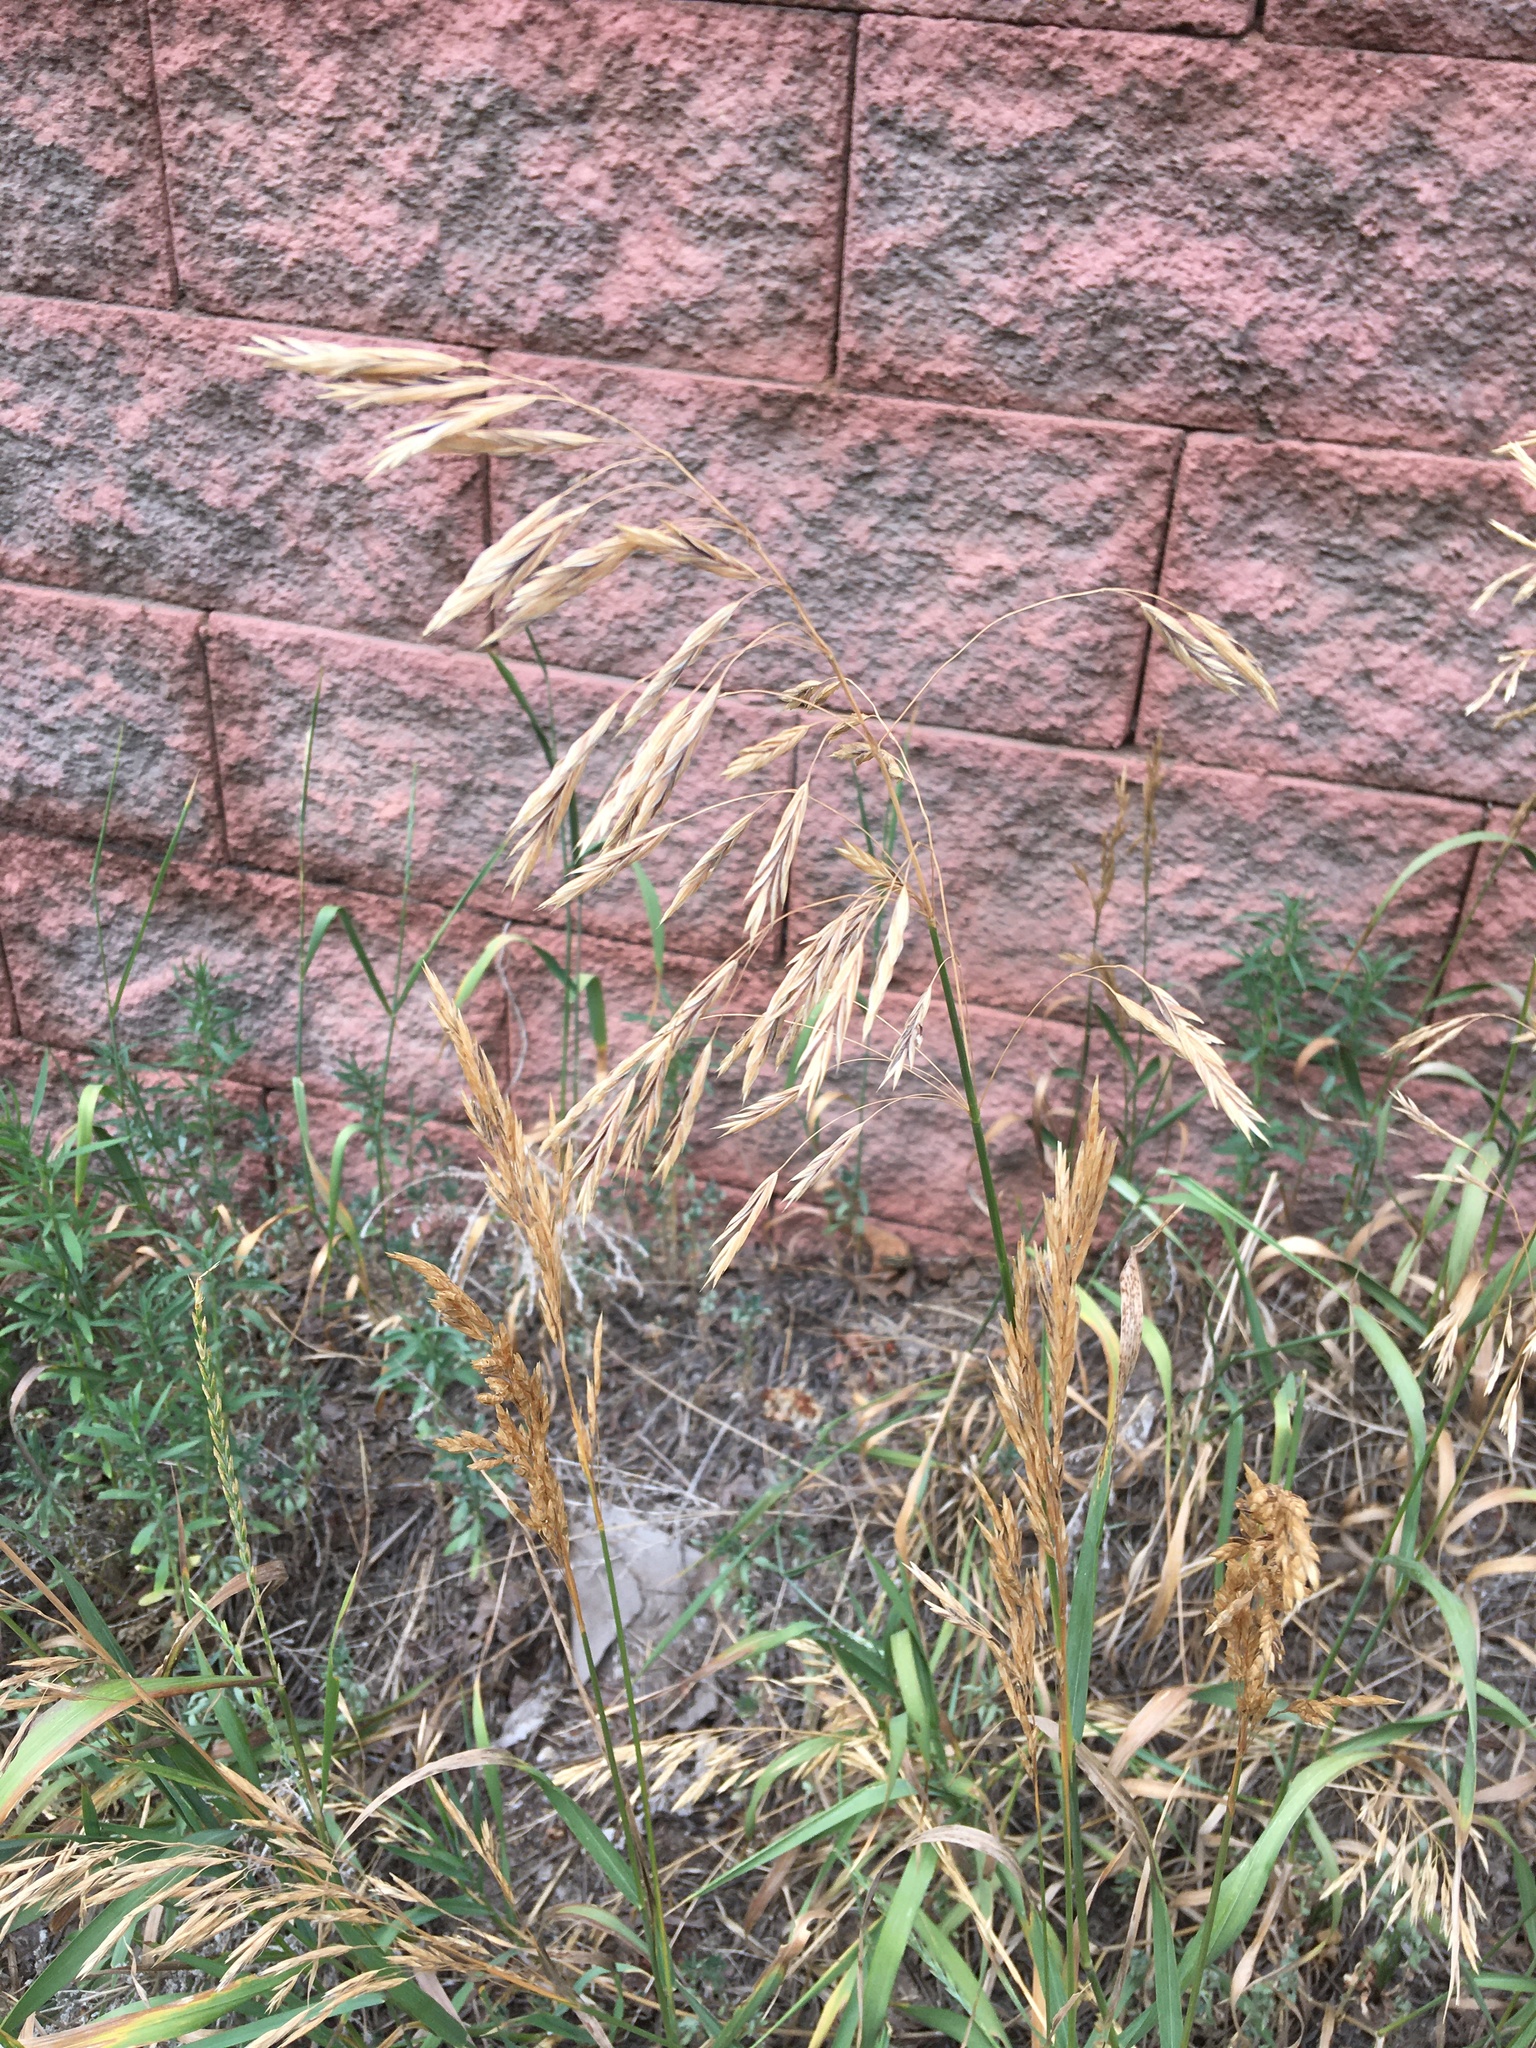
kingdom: Plantae
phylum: Tracheophyta
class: Liliopsida
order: Poales
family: Poaceae
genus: Bromus
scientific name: Bromus inermis
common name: Smooth brome
